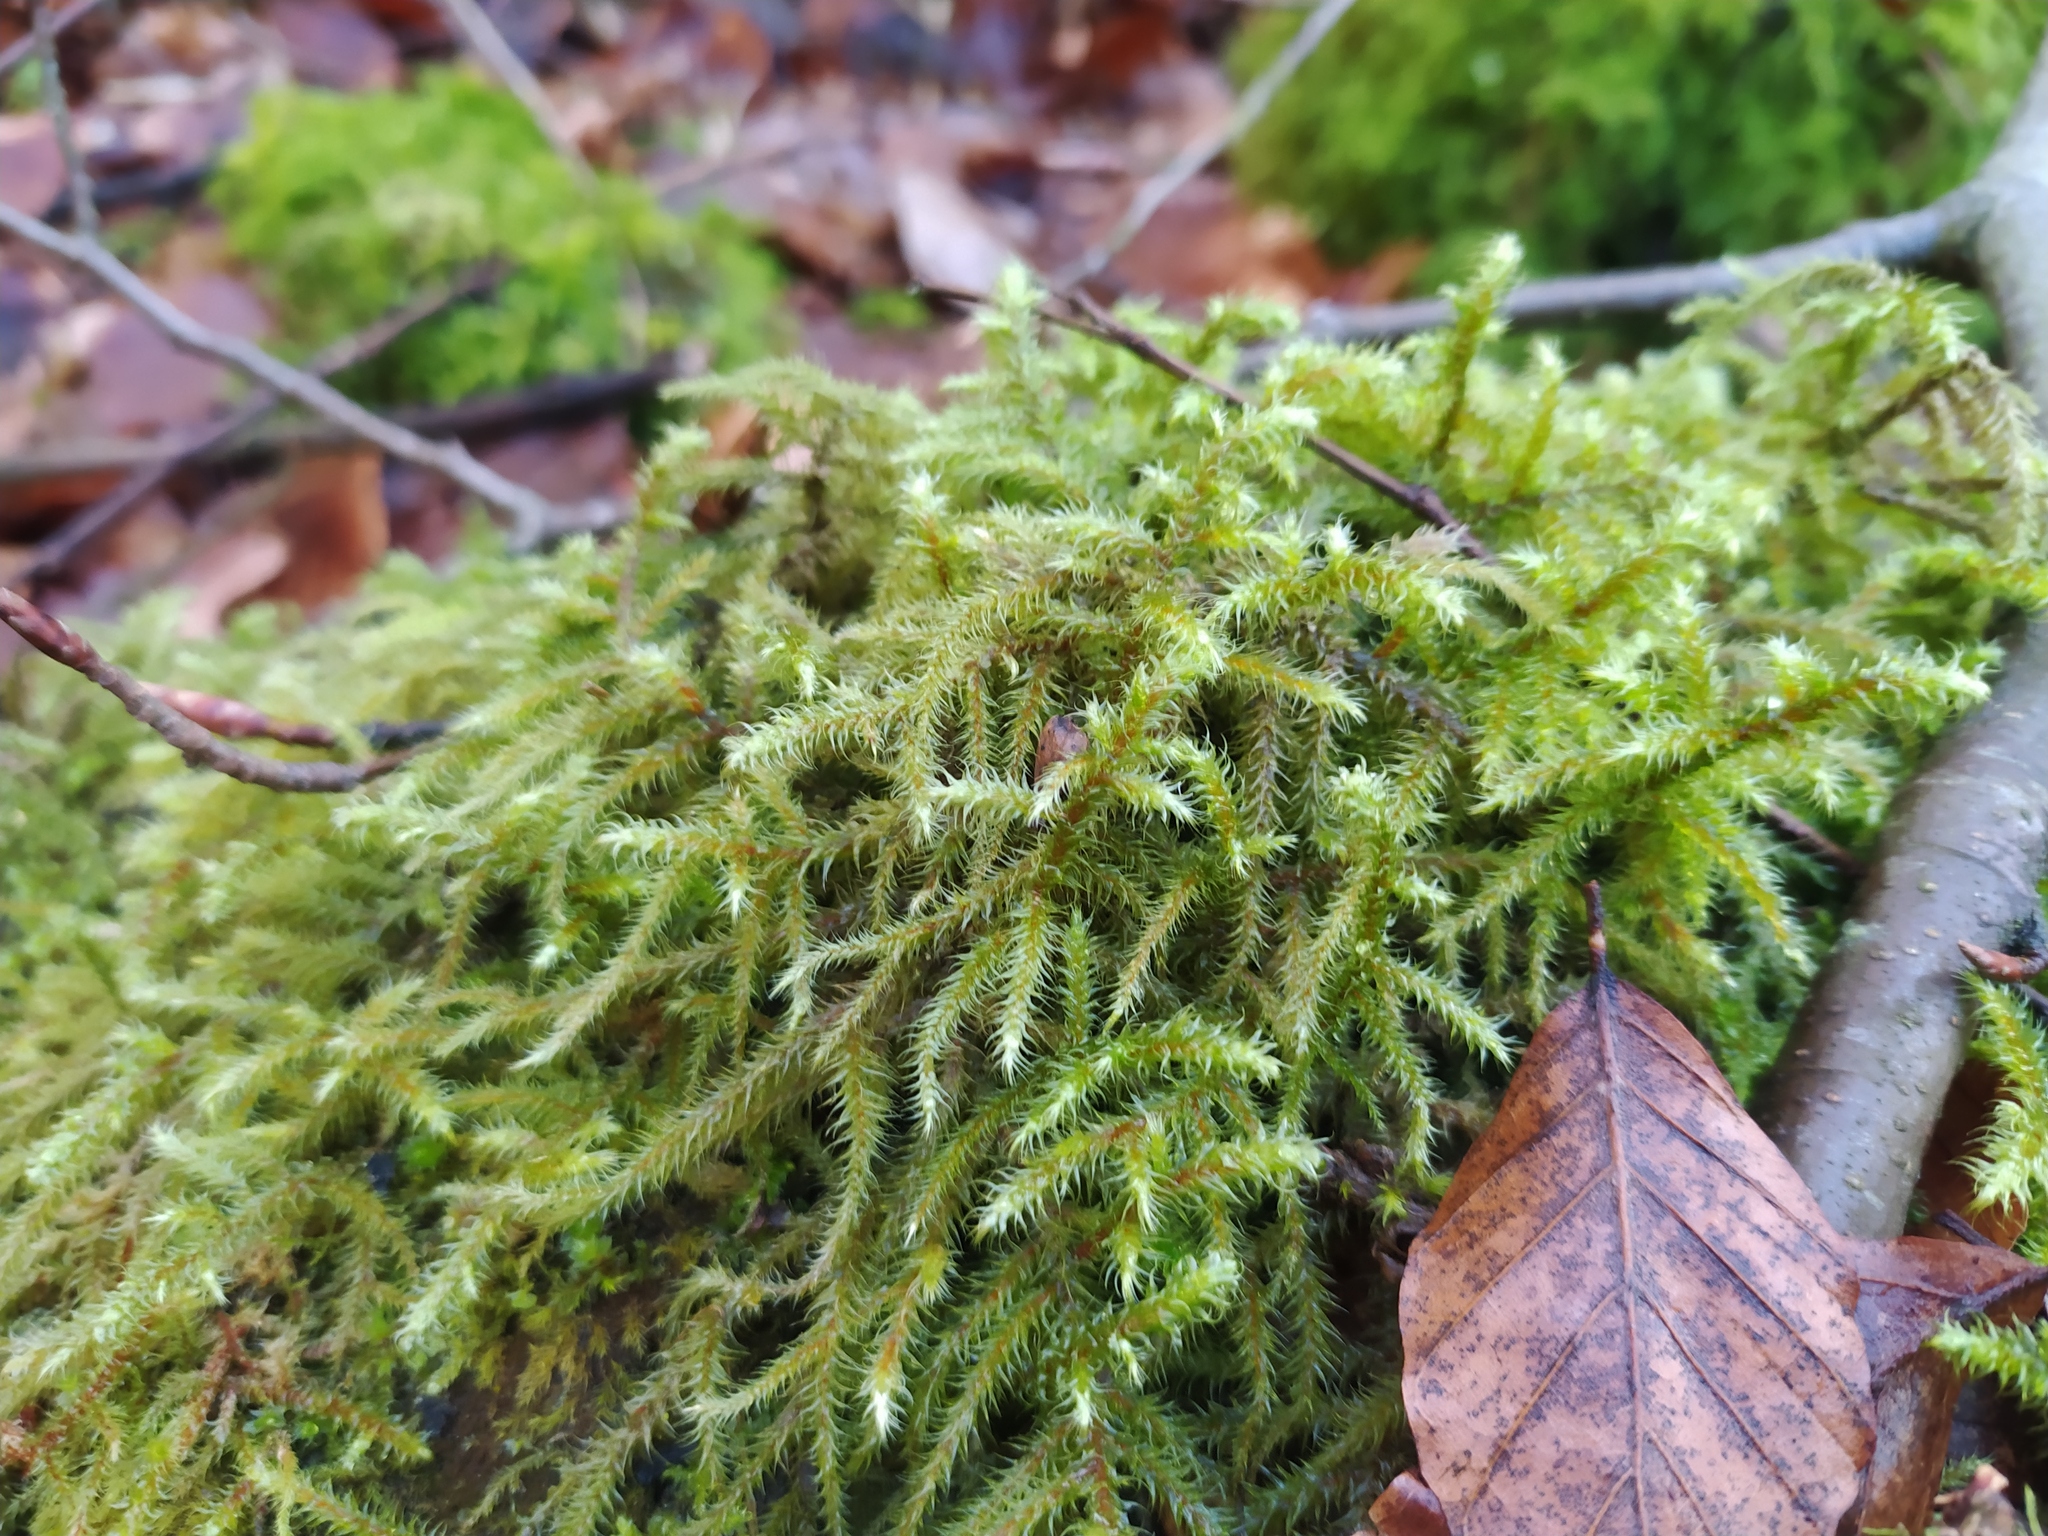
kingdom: Plantae
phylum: Bryophyta
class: Bryopsida
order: Hypnales
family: Hylocomiaceae
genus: Rhytidiadelphus
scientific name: Rhytidiadelphus loreus
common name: Lanky moss
